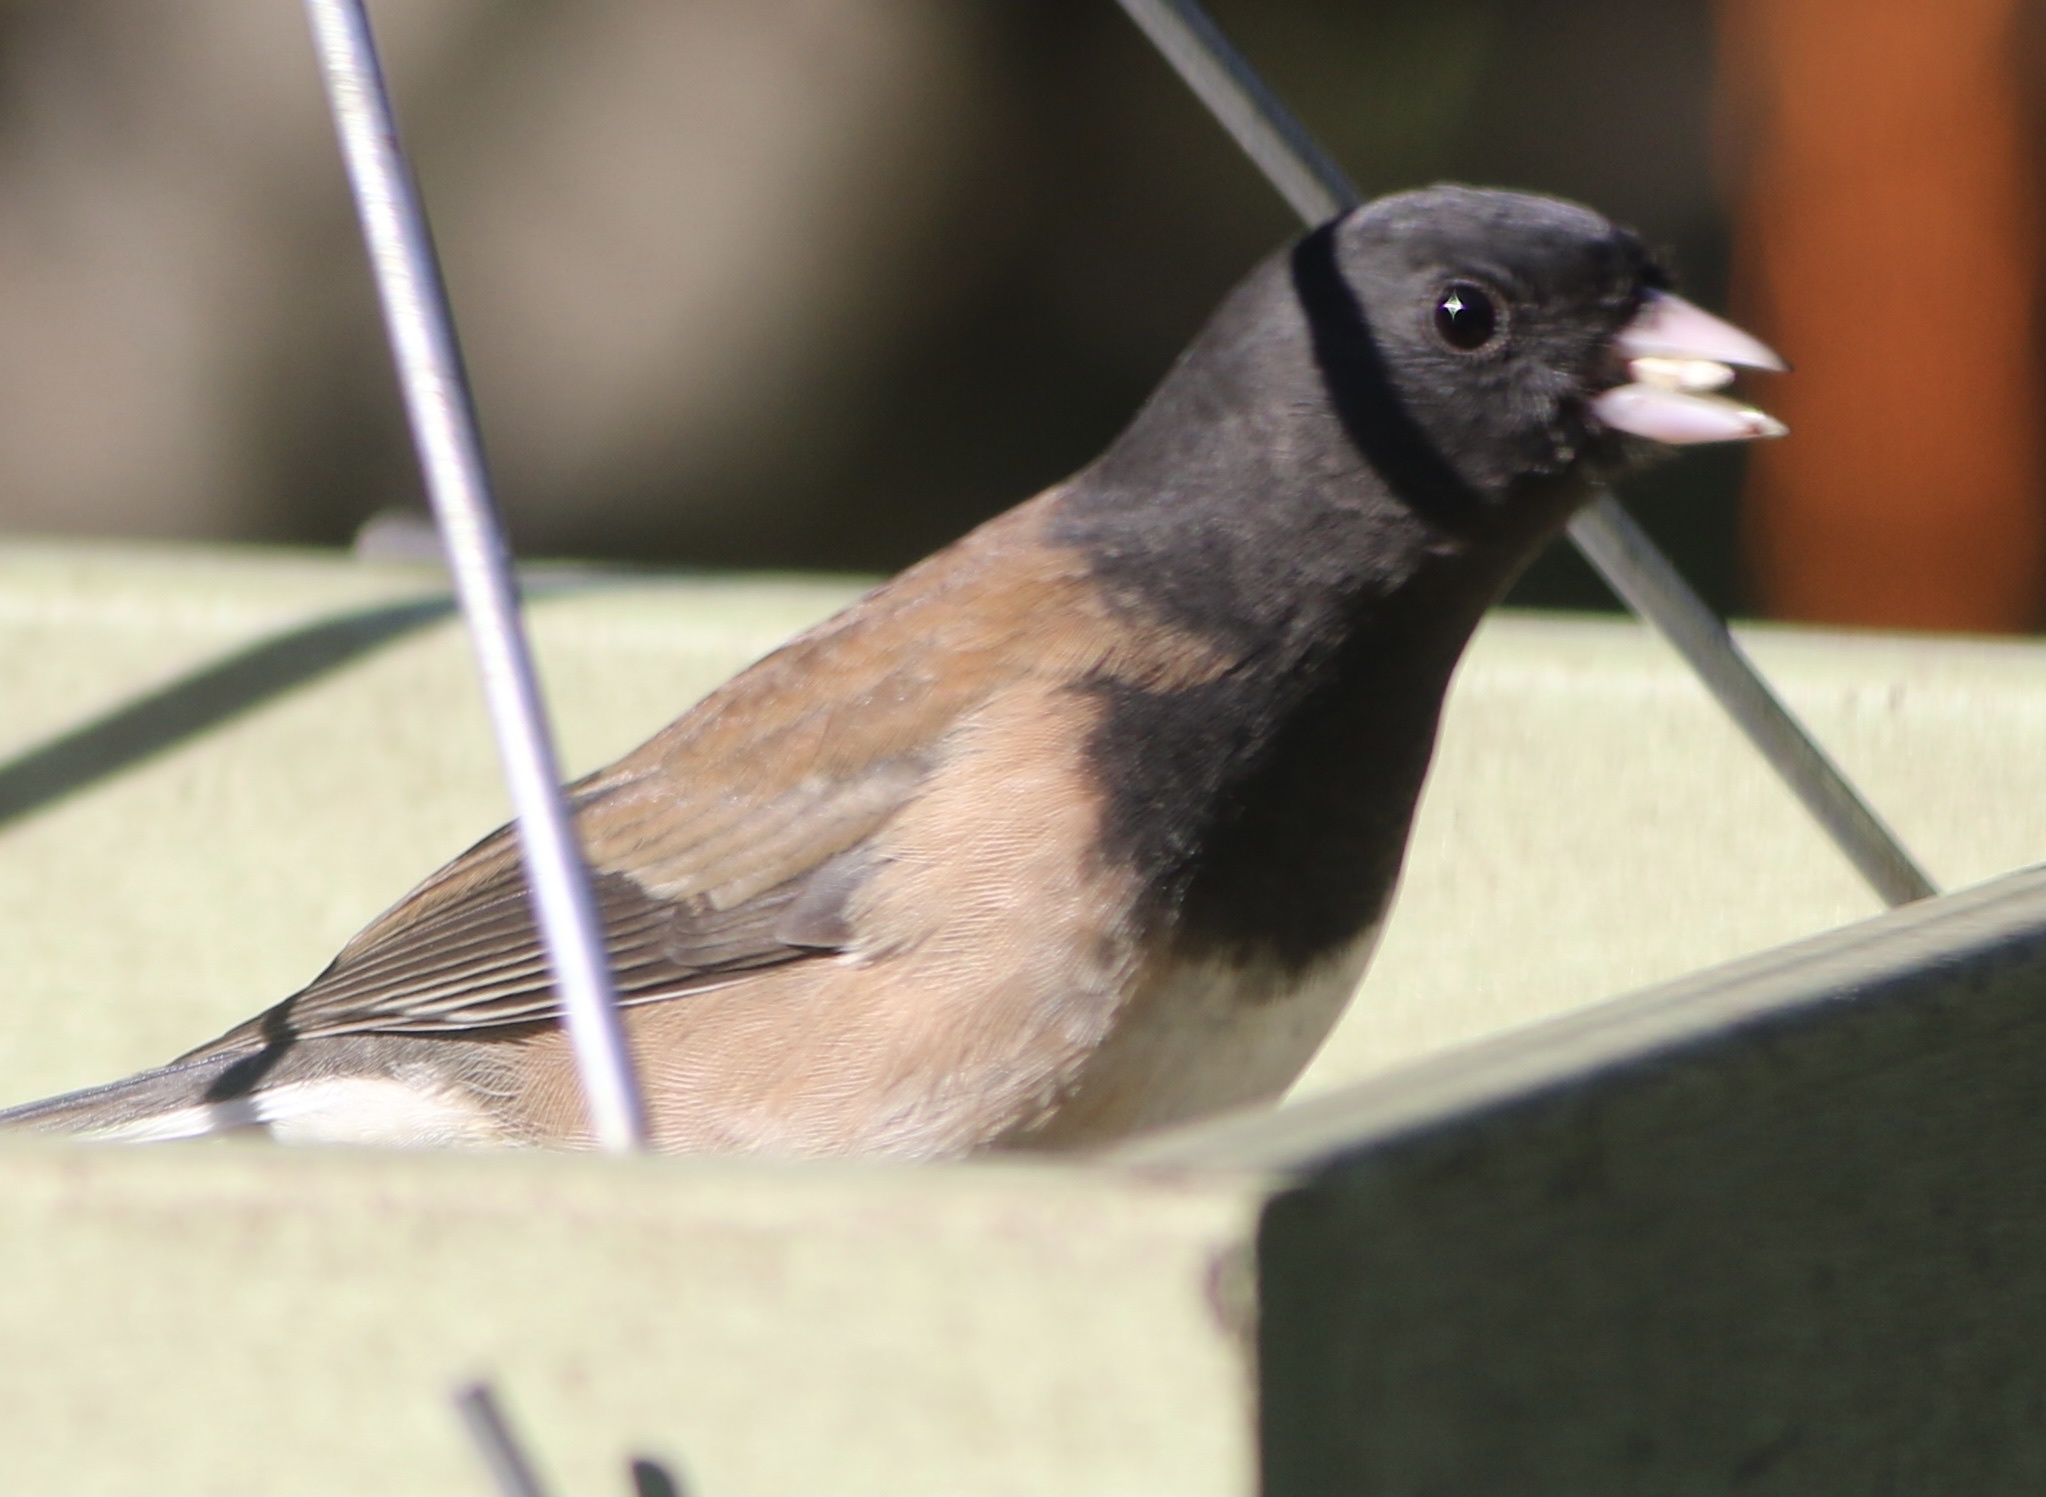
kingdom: Animalia
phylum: Chordata
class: Aves
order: Passeriformes
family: Passerellidae
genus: Junco
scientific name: Junco hyemalis
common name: Dark-eyed junco
